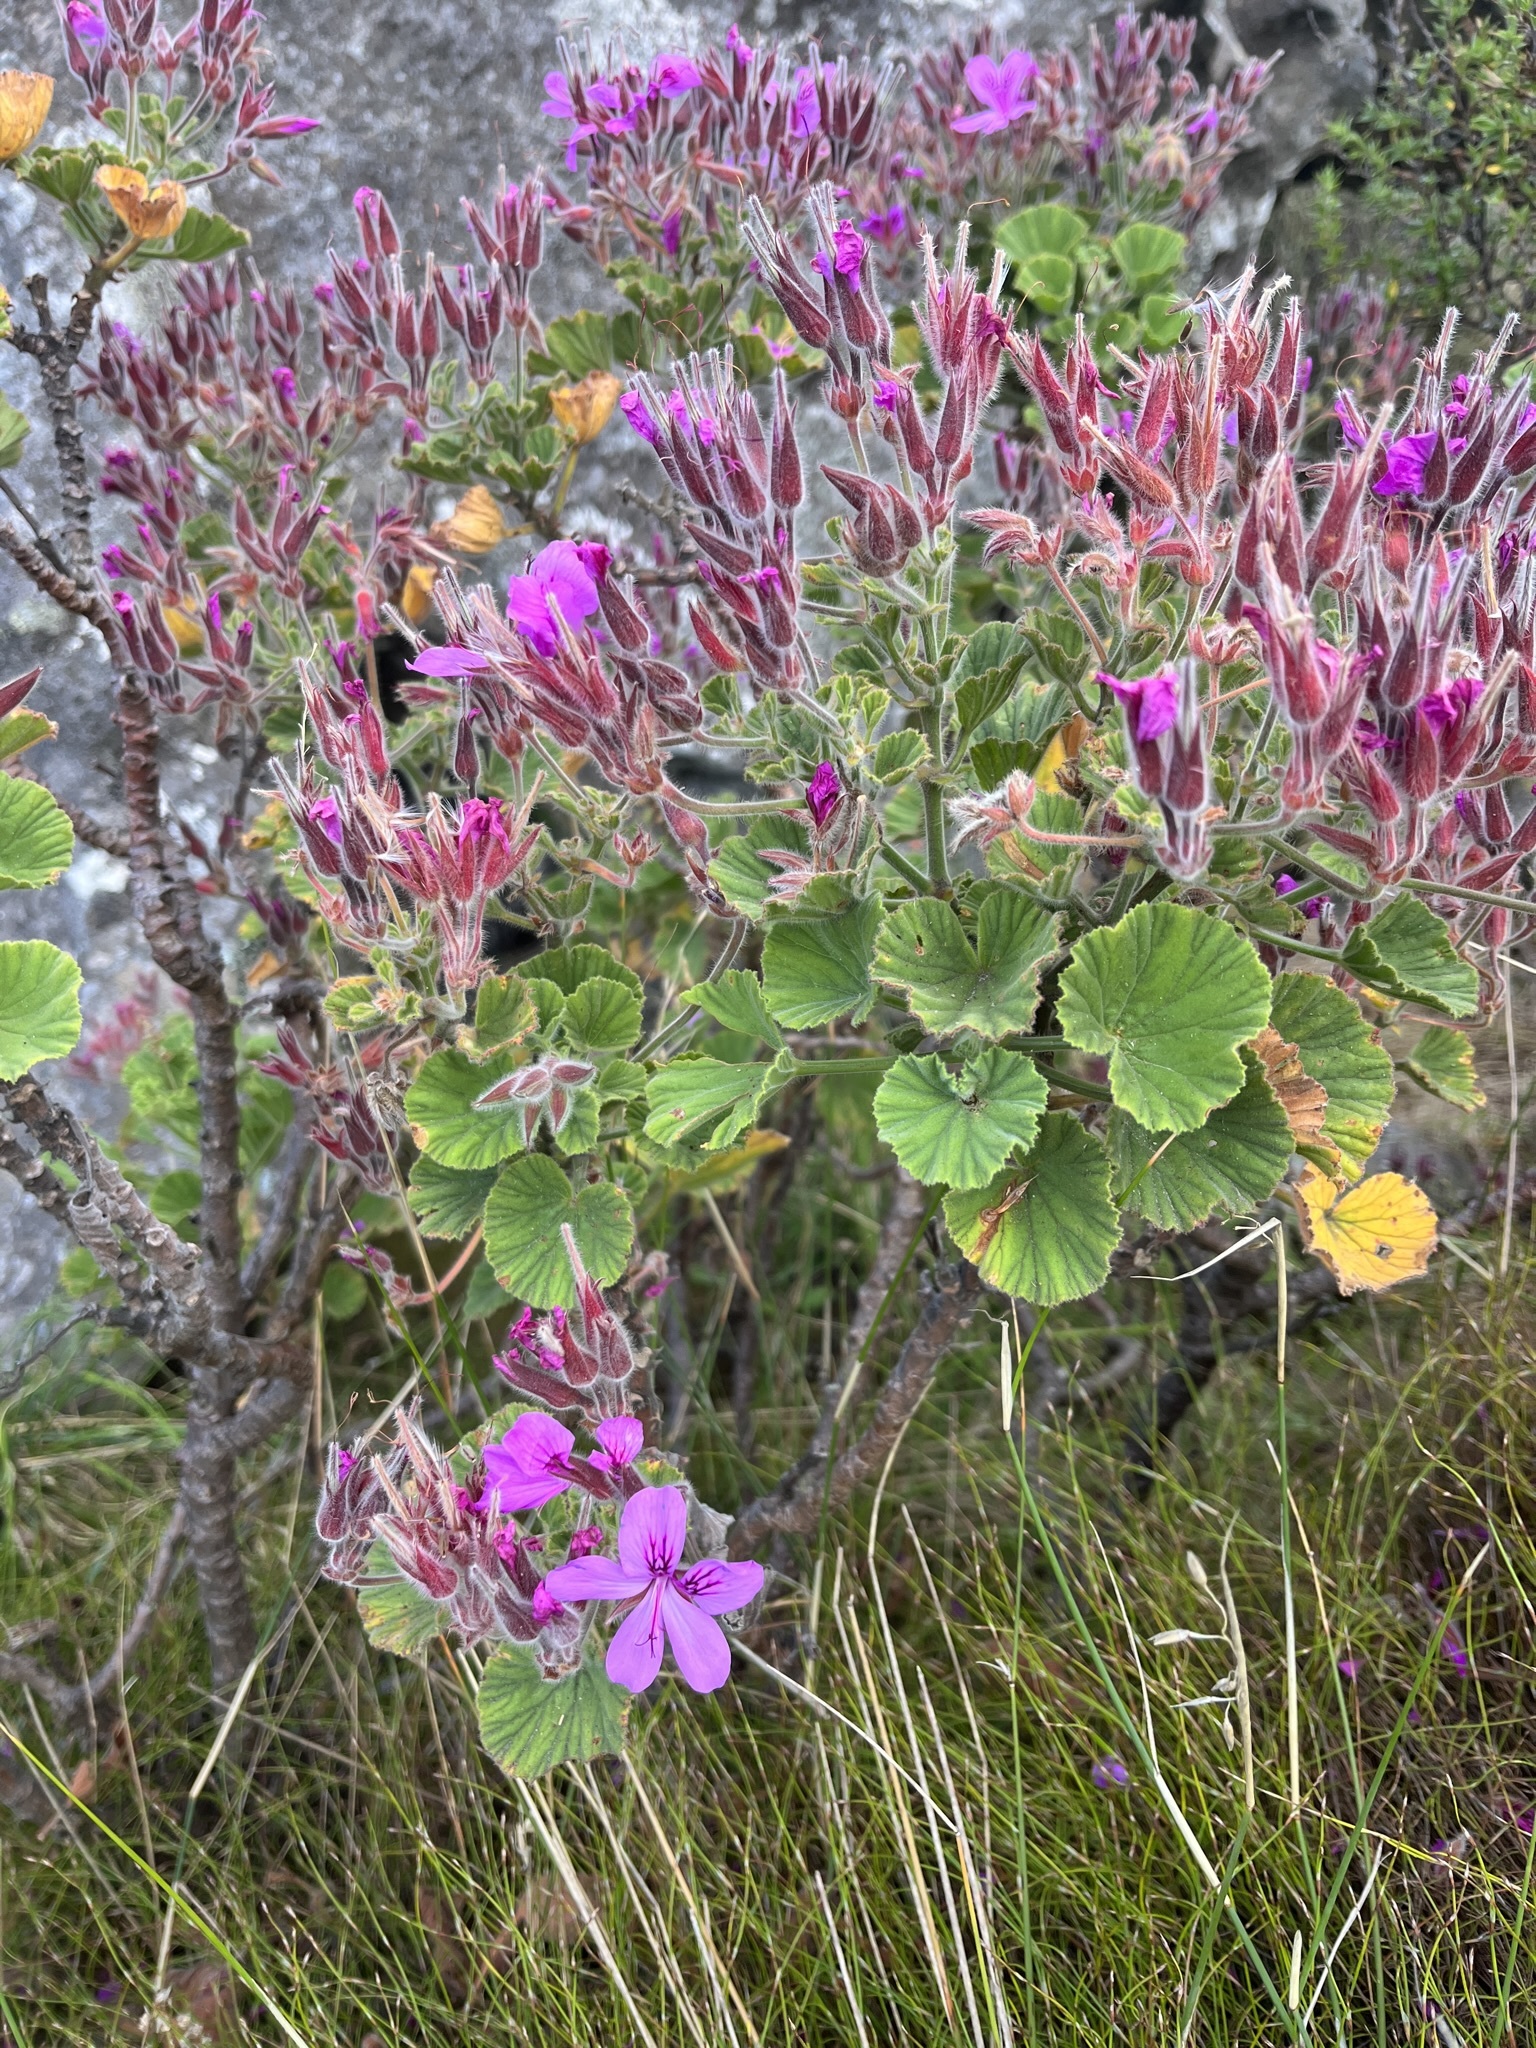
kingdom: Plantae
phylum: Tracheophyta
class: Magnoliopsida
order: Geraniales
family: Geraniaceae
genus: Pelargonium
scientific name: Pelargonium cucullatum
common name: Tree pelargonium
